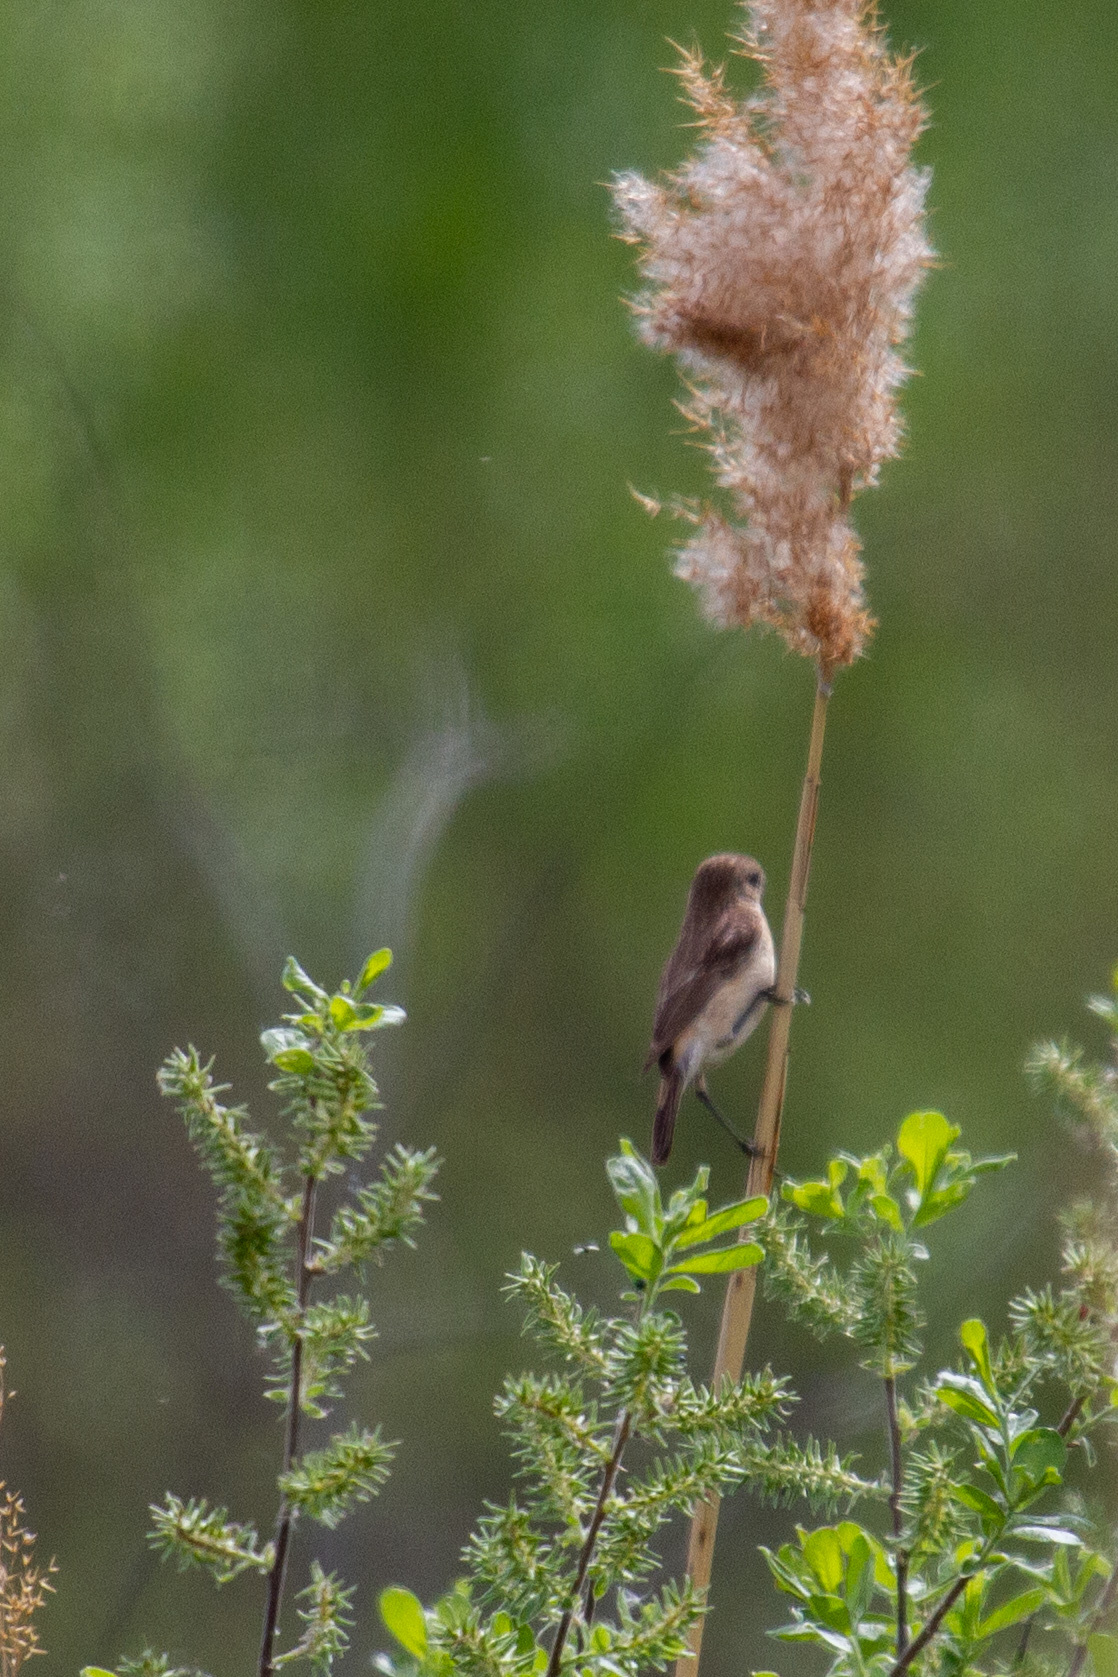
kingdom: Animalia
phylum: Chordata
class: Aves
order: Passeriformes
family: Muscicapidae
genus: Saxicola
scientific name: Saxicola maurus
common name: Siberian stonechat
